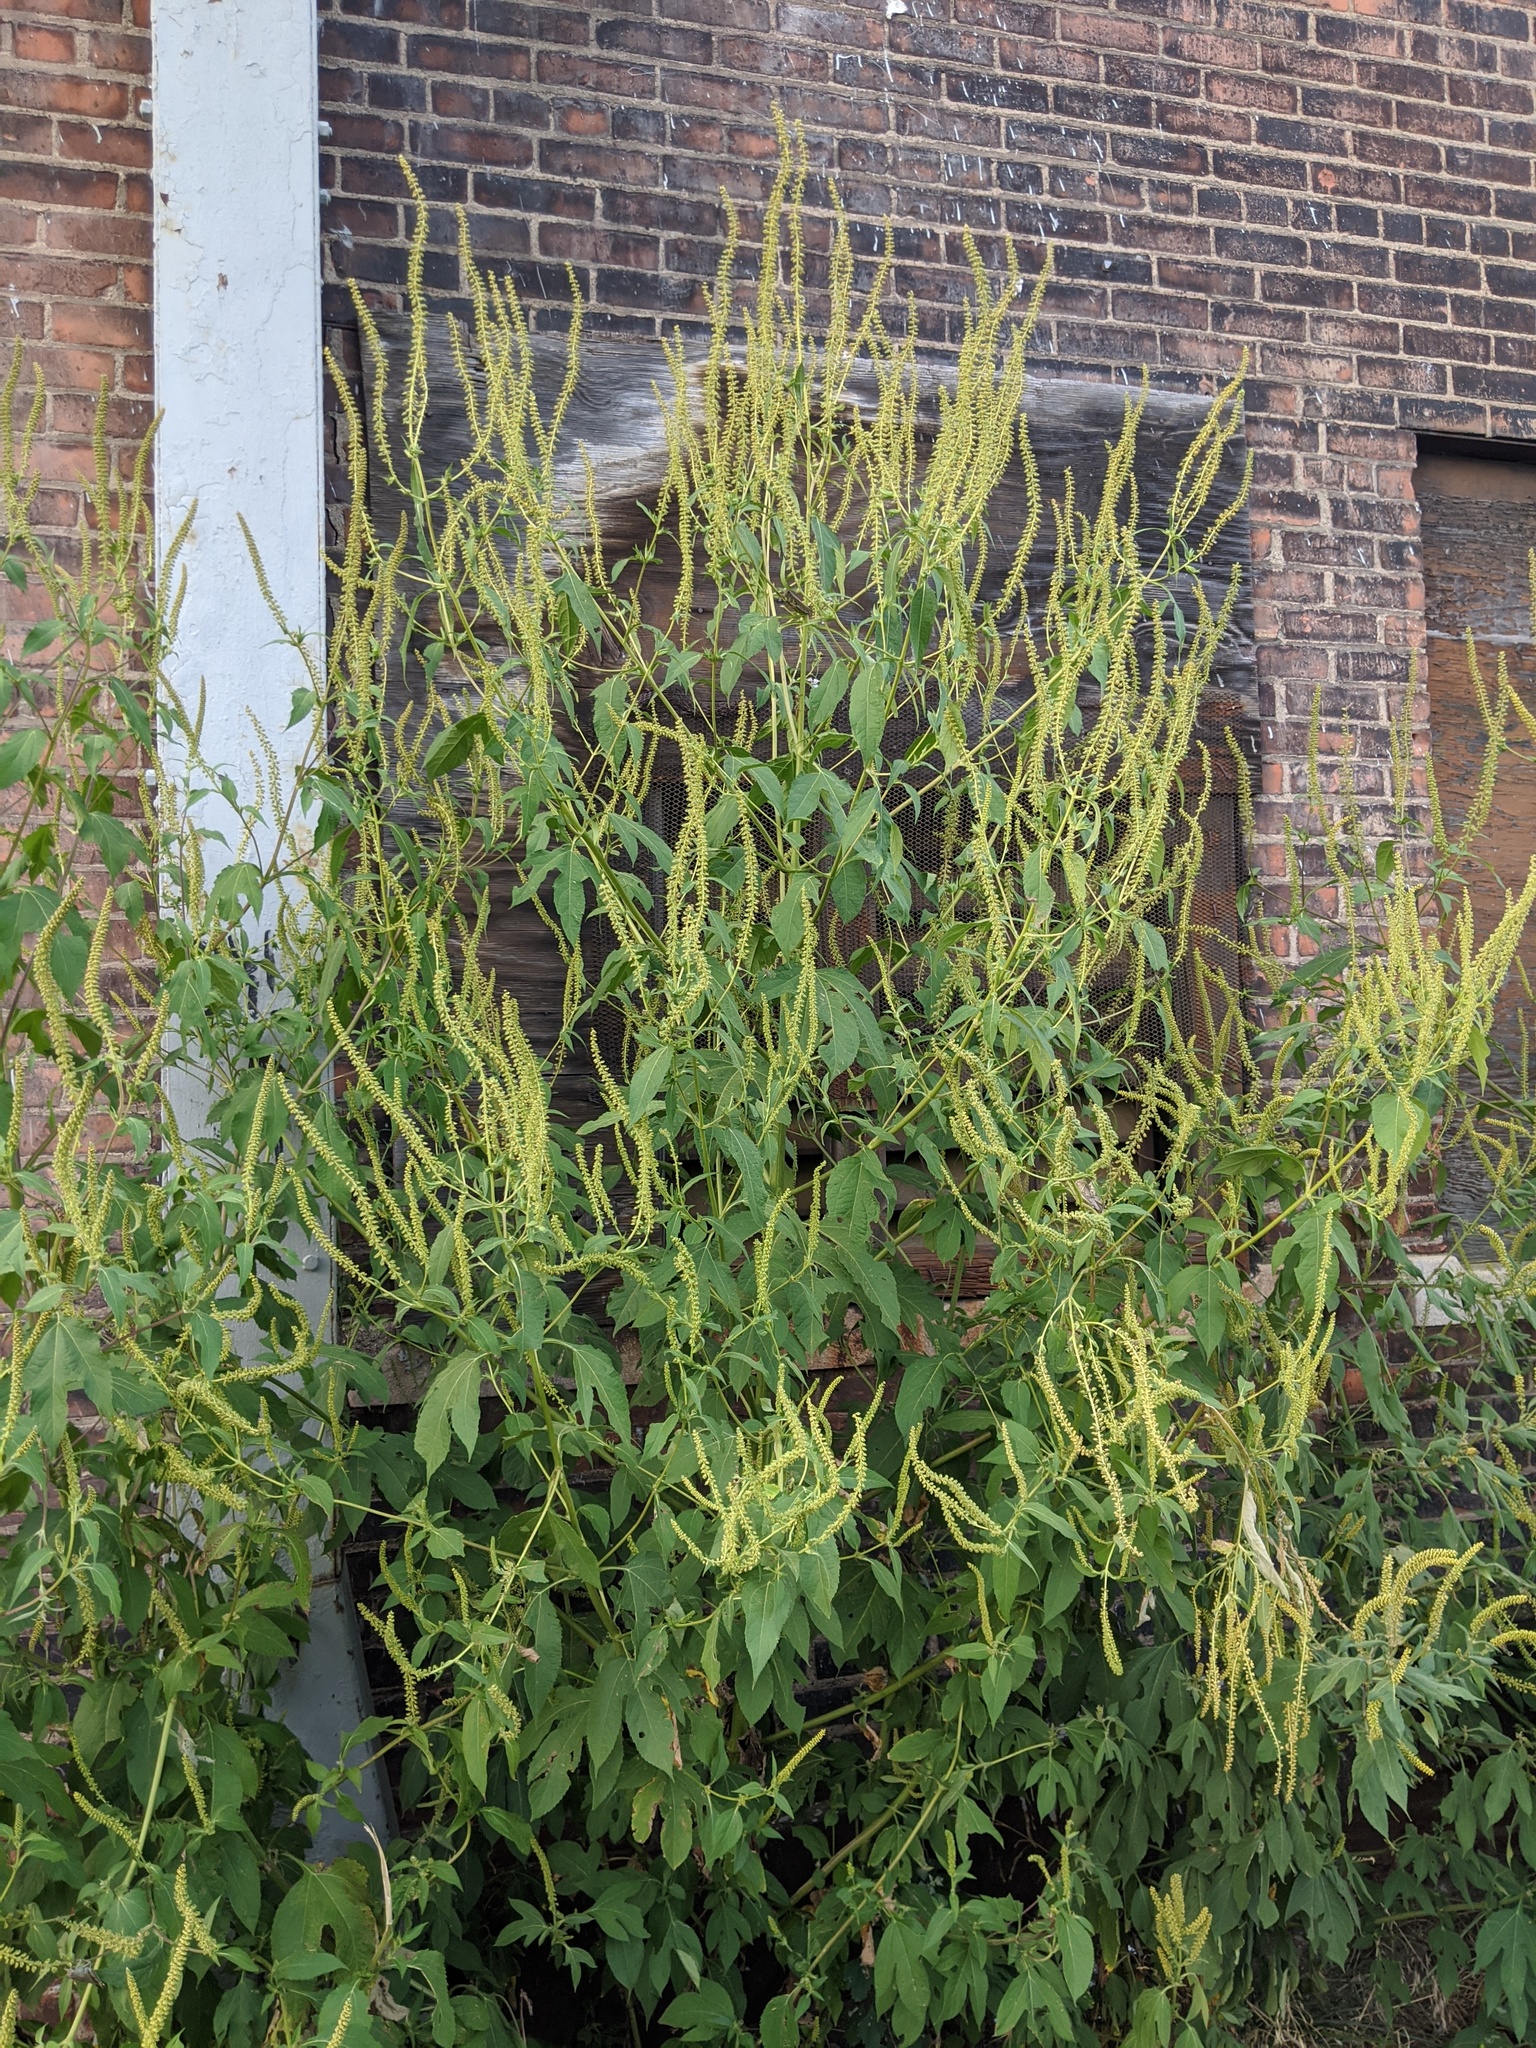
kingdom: Plantae
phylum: Tracheophyta
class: Magnoliopsida
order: Asterales
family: Asteraceae
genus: Ambrosia
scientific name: Ambrosia trifida
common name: Giant ragweed
